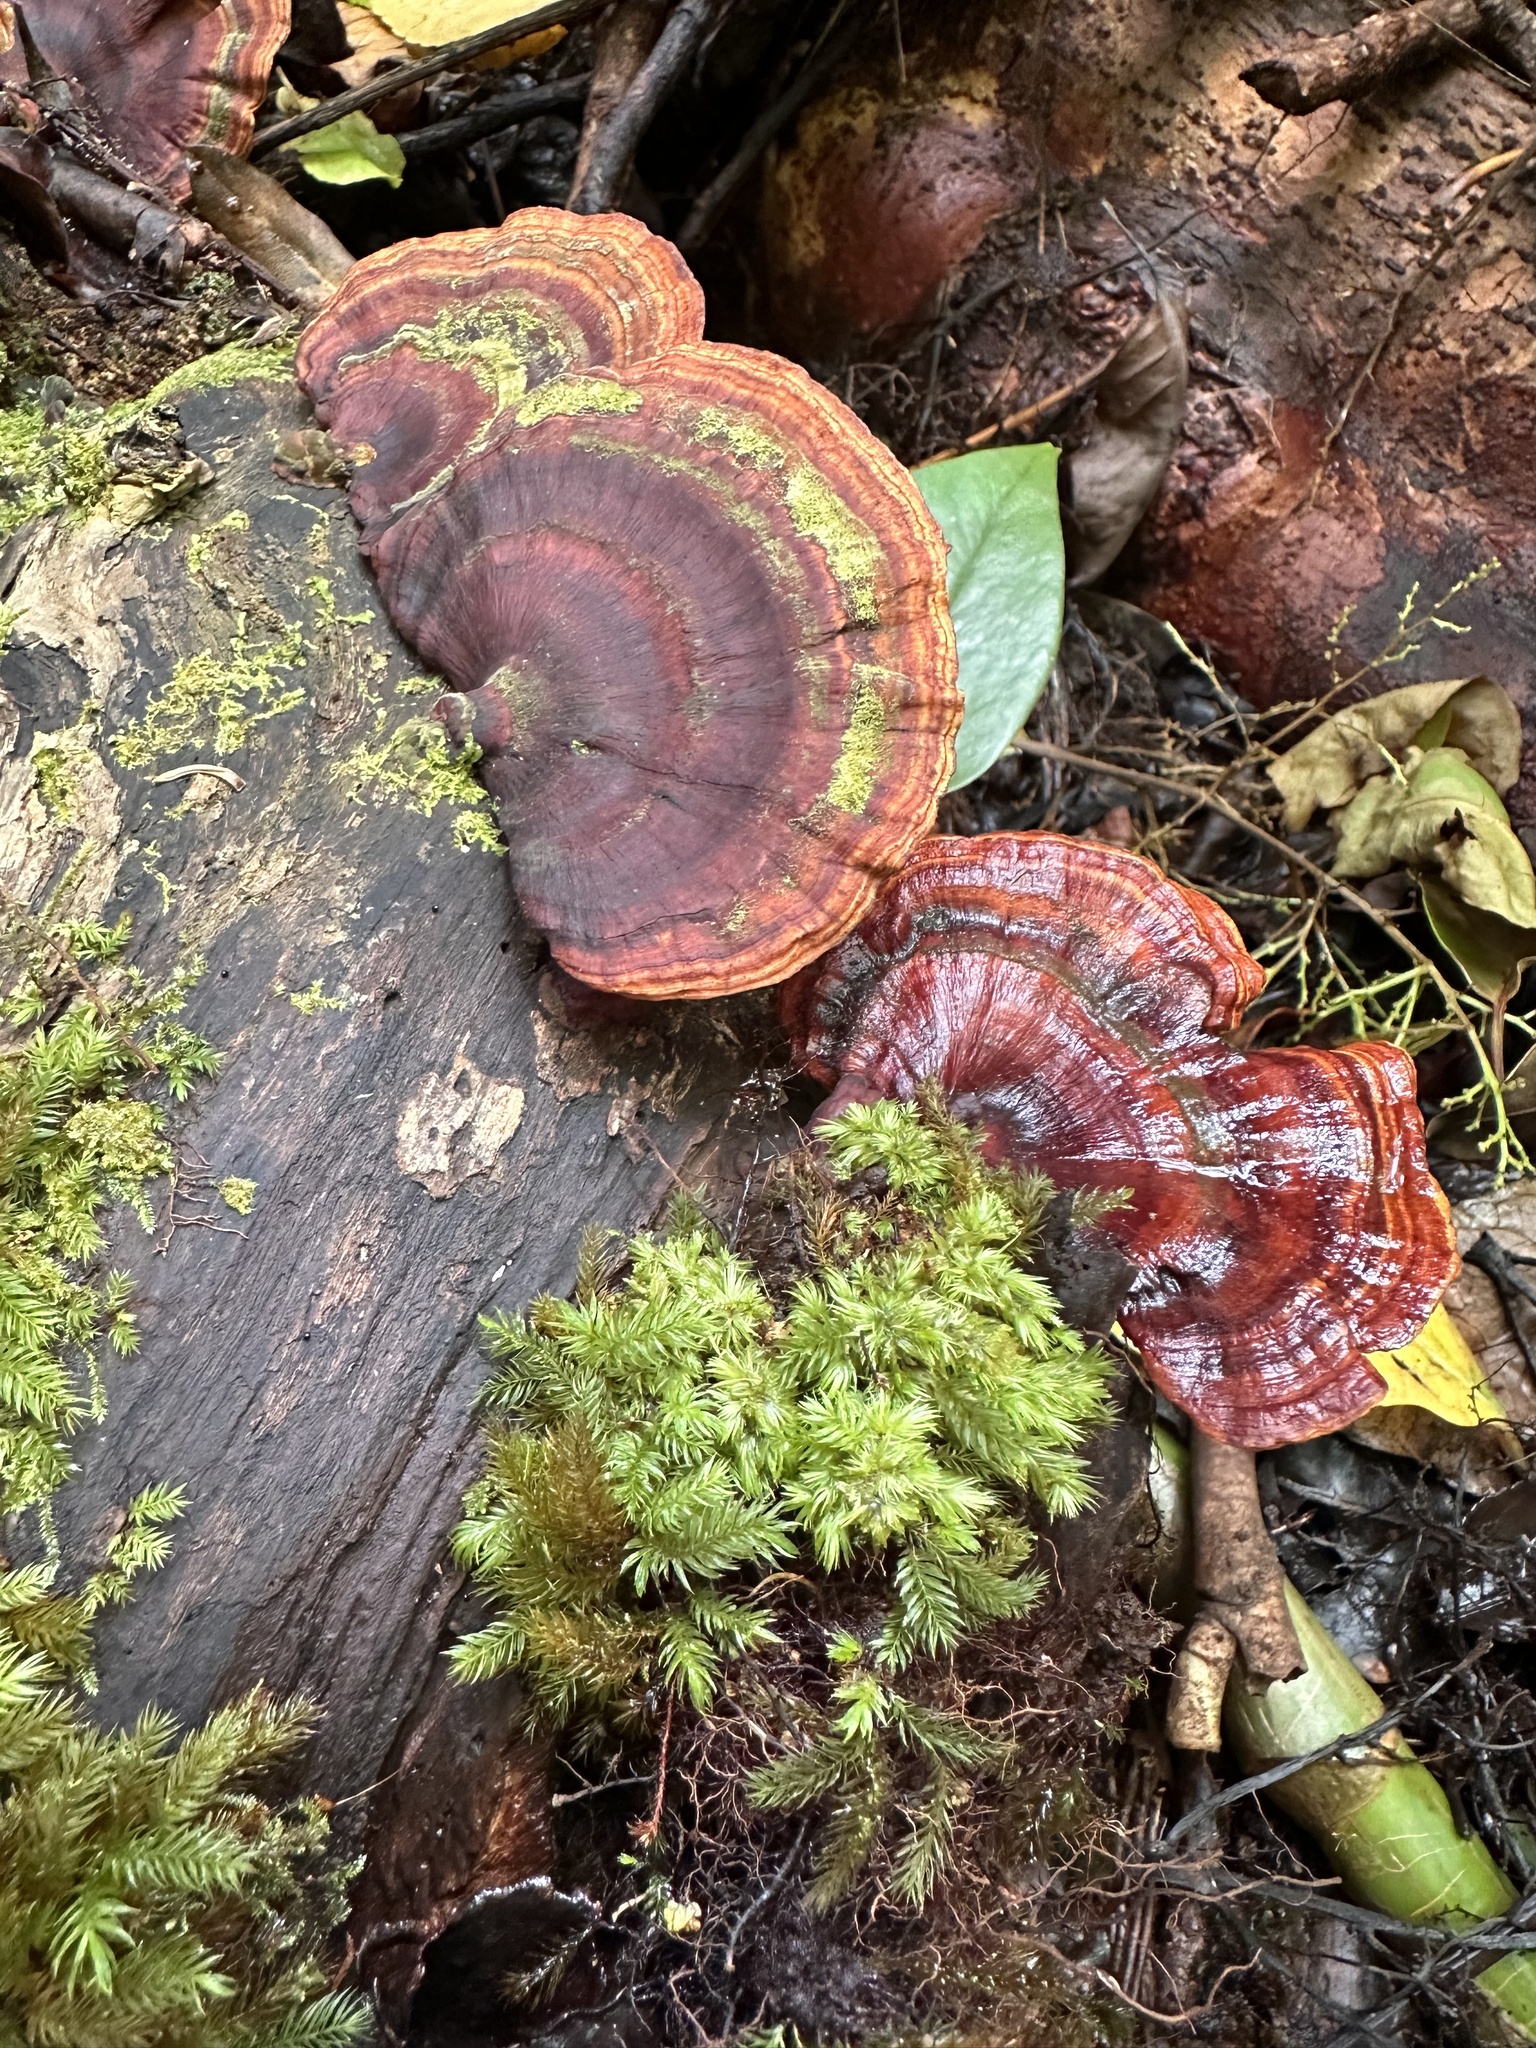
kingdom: Fungi
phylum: Basidiomycota
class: Agaricomycetes
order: Polyporales
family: Polyporaceae
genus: Microporus
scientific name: Microporus affinis
